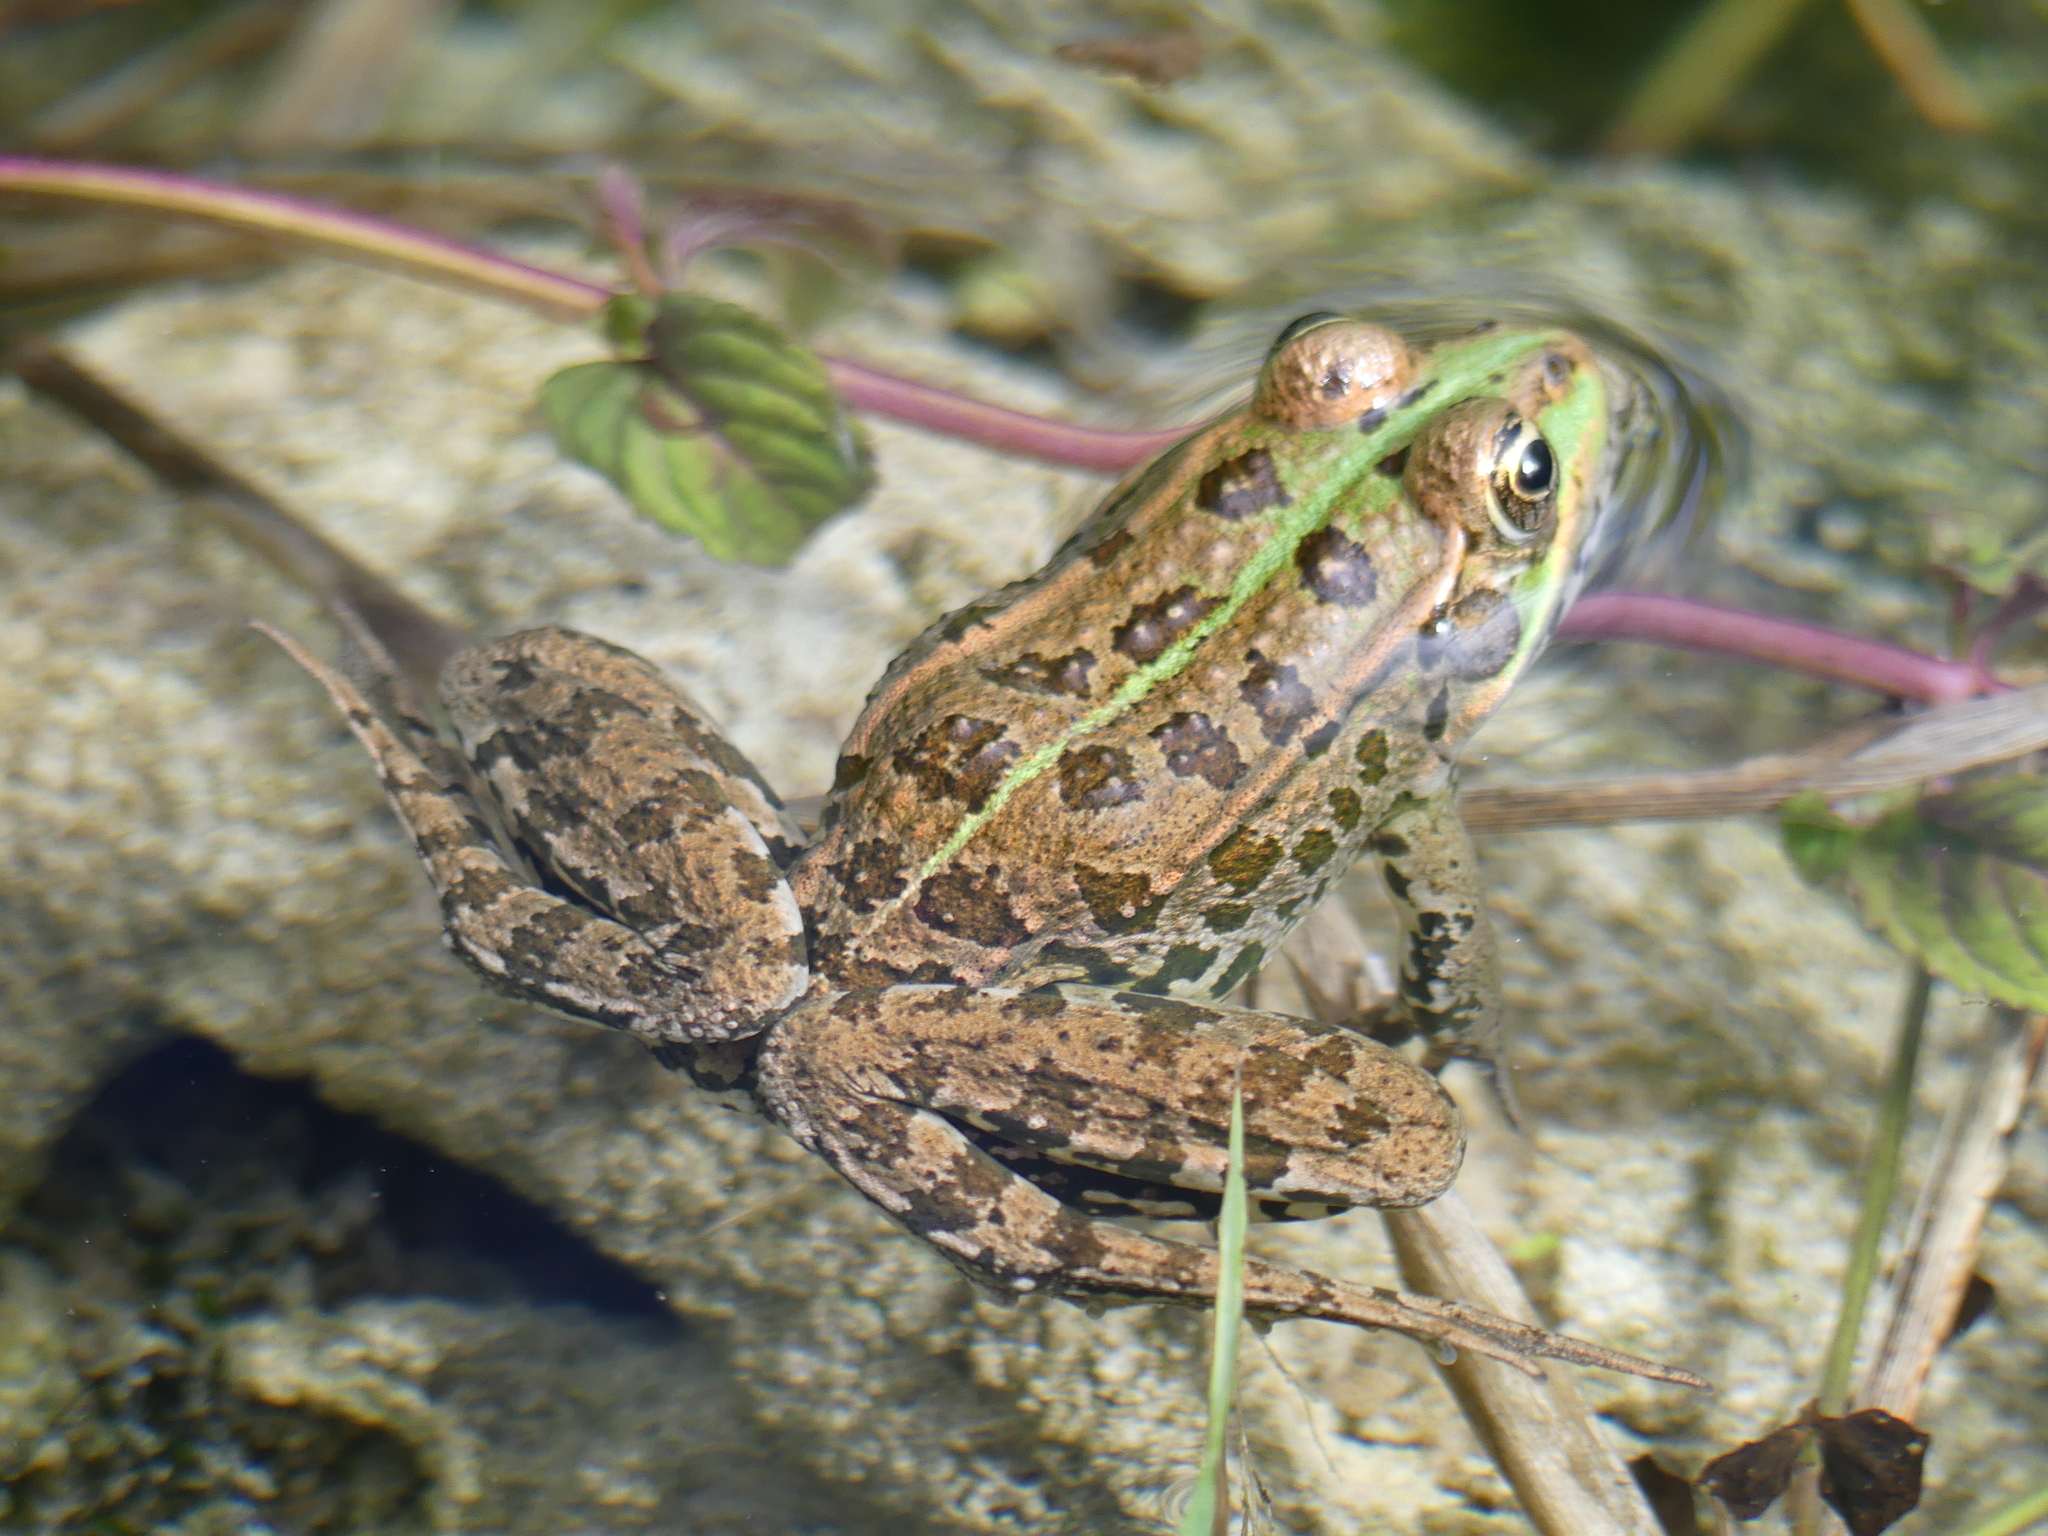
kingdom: Animalia
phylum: Chordata
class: Amphibia
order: Anura
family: Ranidae
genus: Pelophylax
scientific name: Pelophylax ridibundus
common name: Marsh frog
